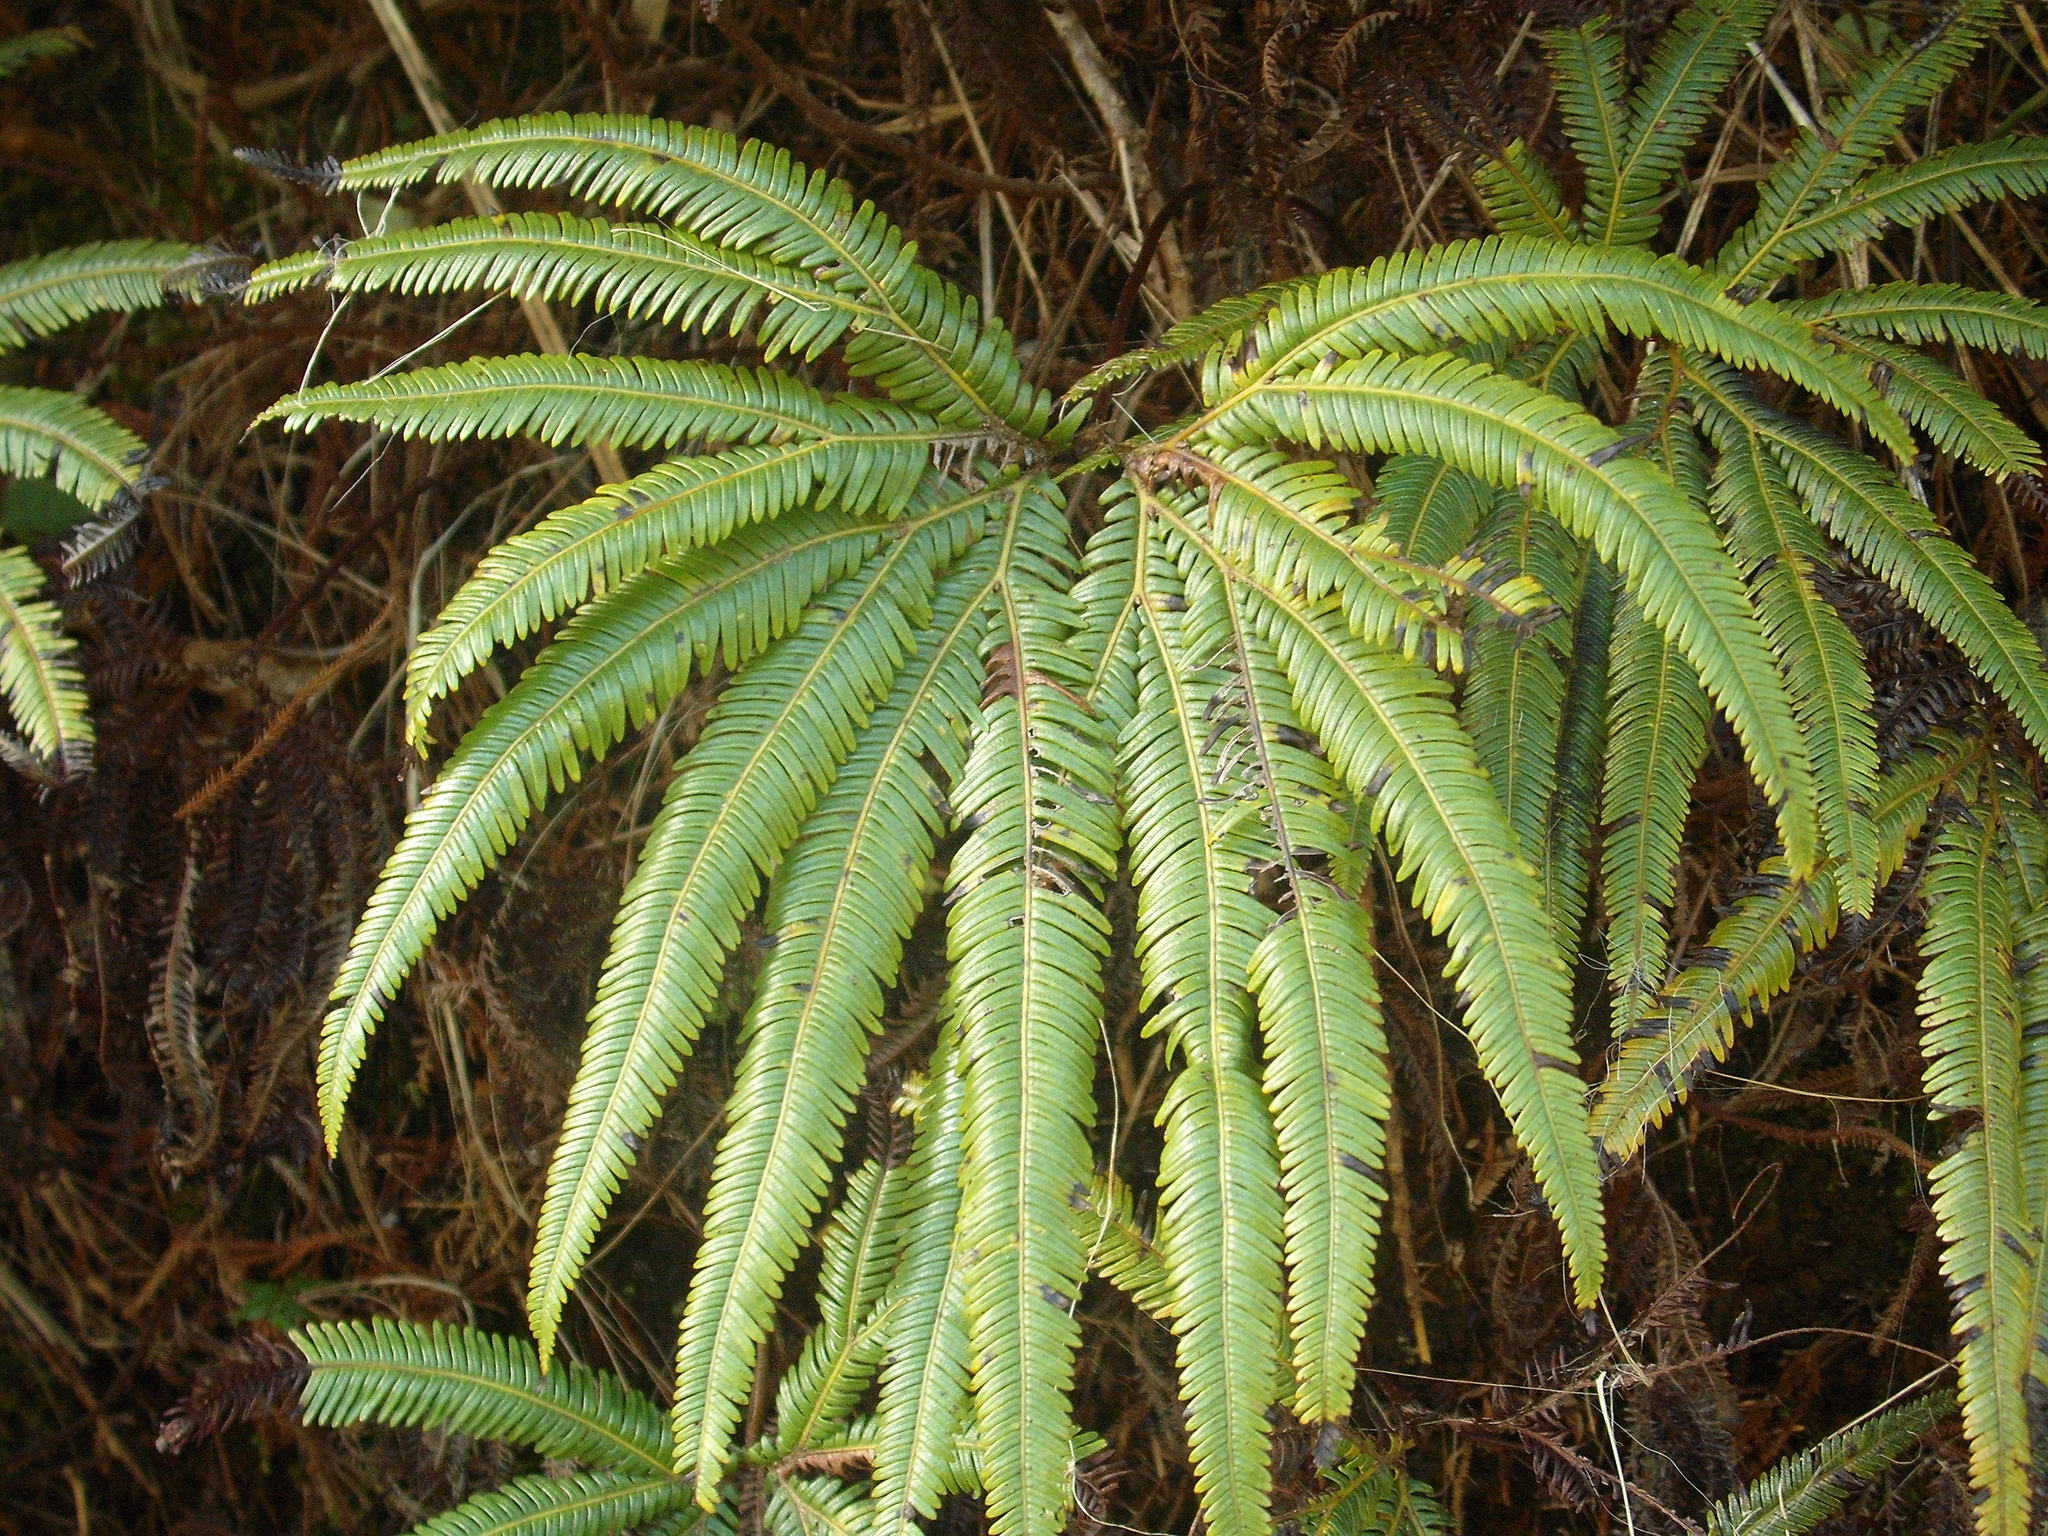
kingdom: Plantae
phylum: Tracheophyta
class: Polypodiopsida
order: Gleicheniales
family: Gleicheniaceae
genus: Sticherus
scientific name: Sticherus cunninghamii
